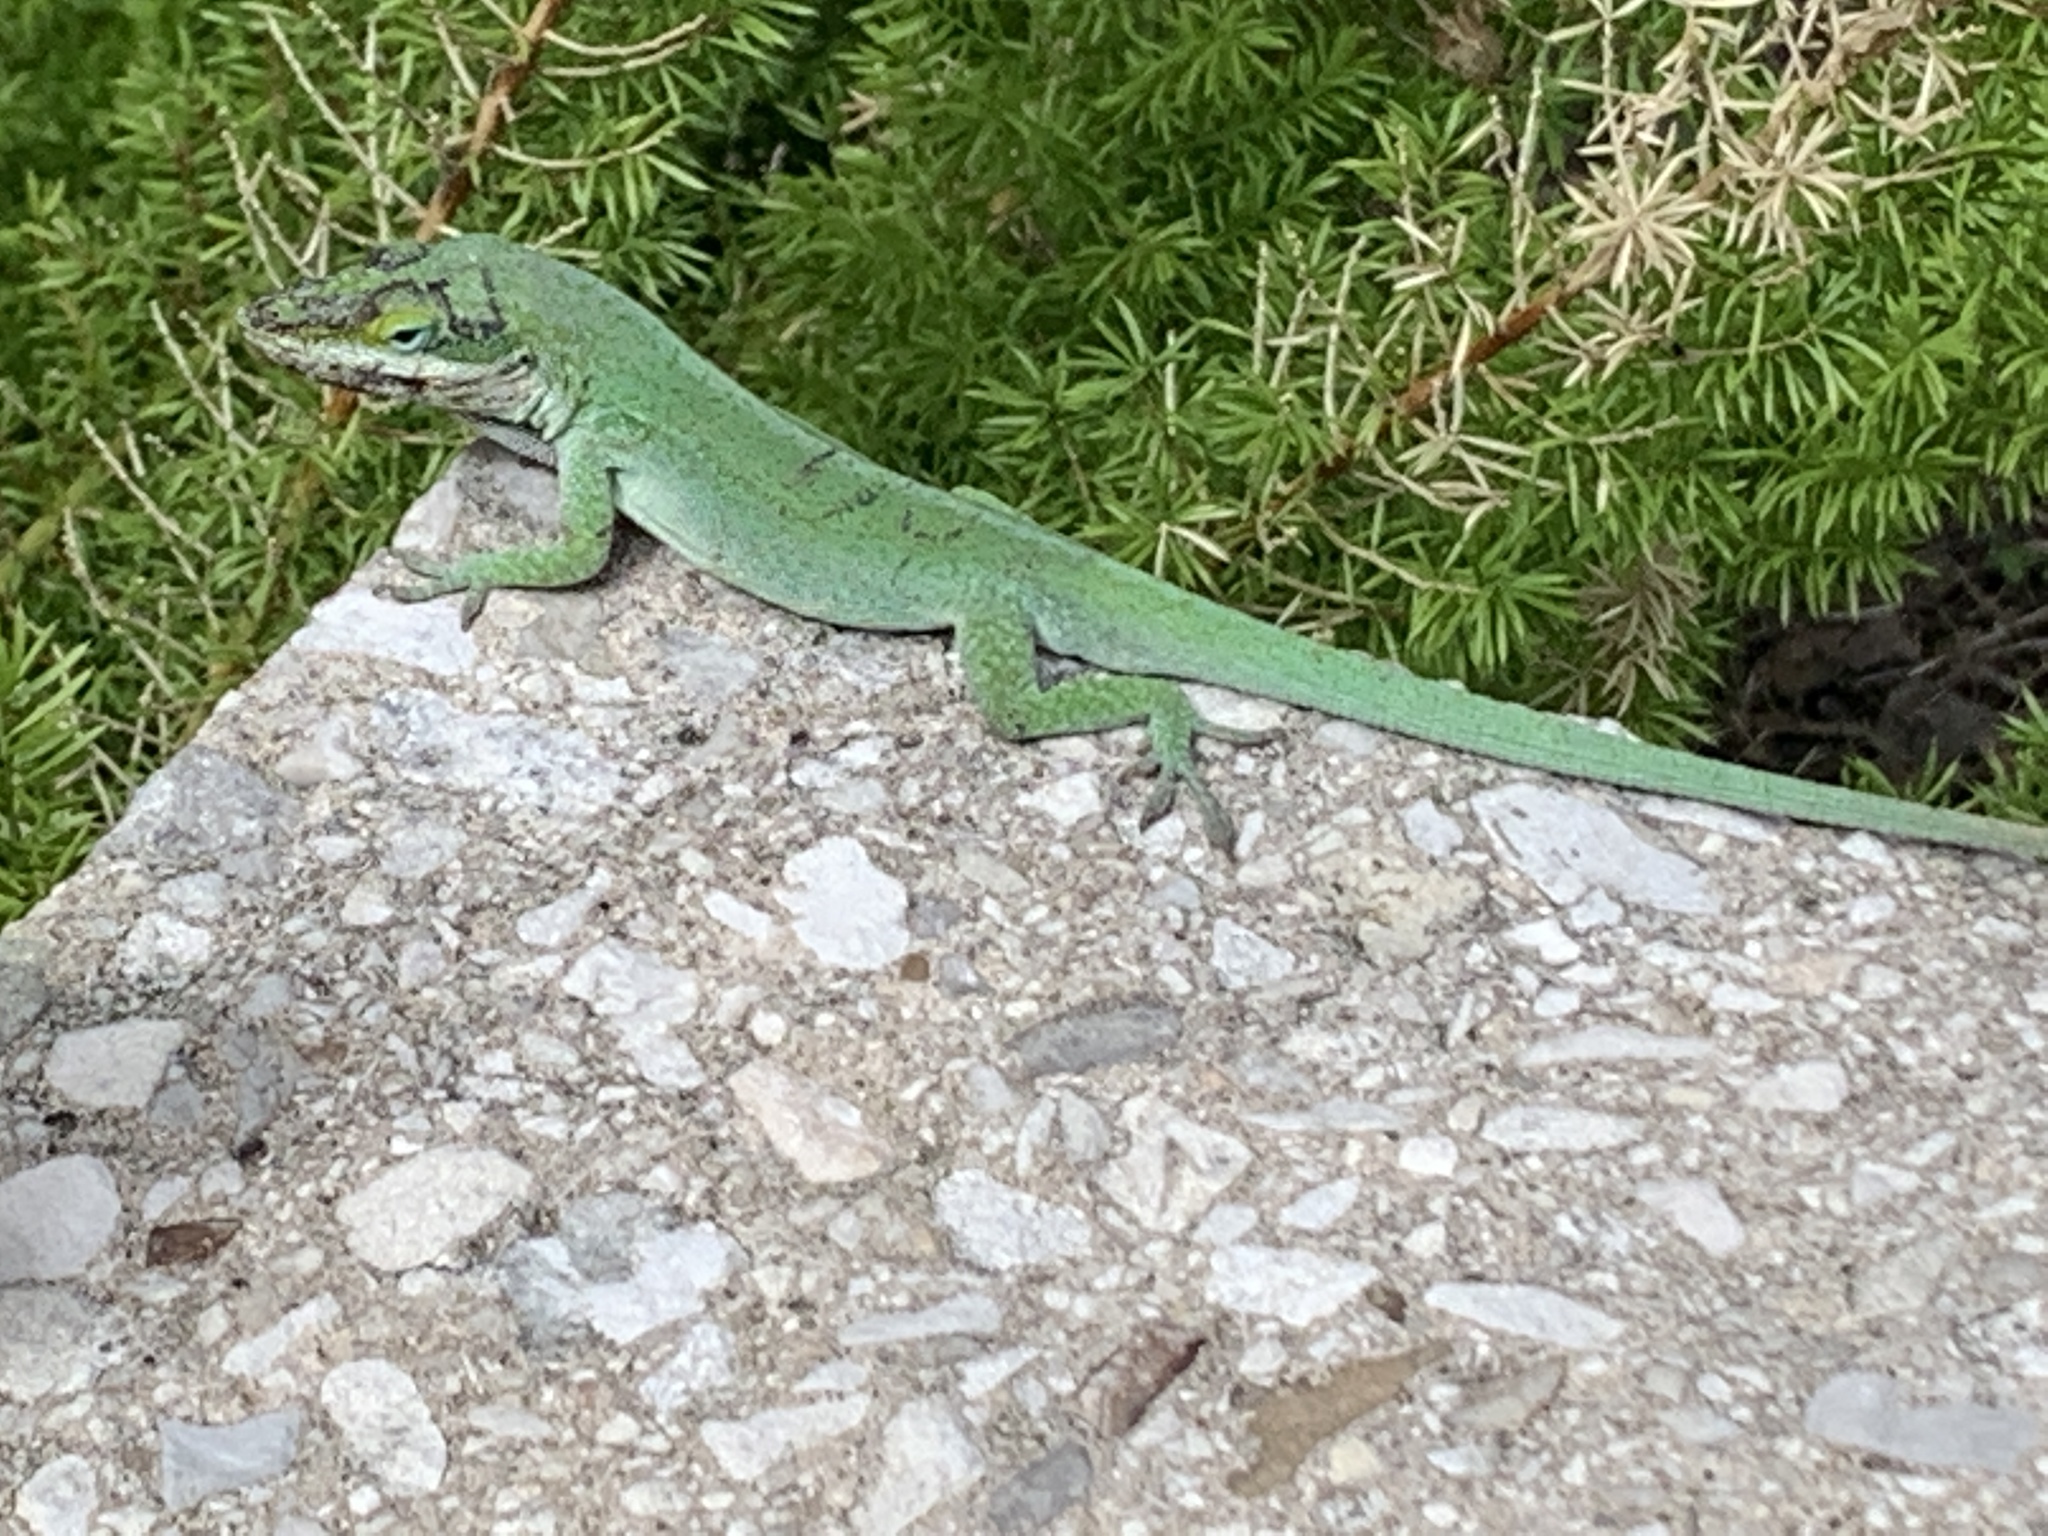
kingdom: Animalia
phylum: Chordata
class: Squamata
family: Dactyloidae
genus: Anolis
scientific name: Anolis carolinensis
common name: Green anole
